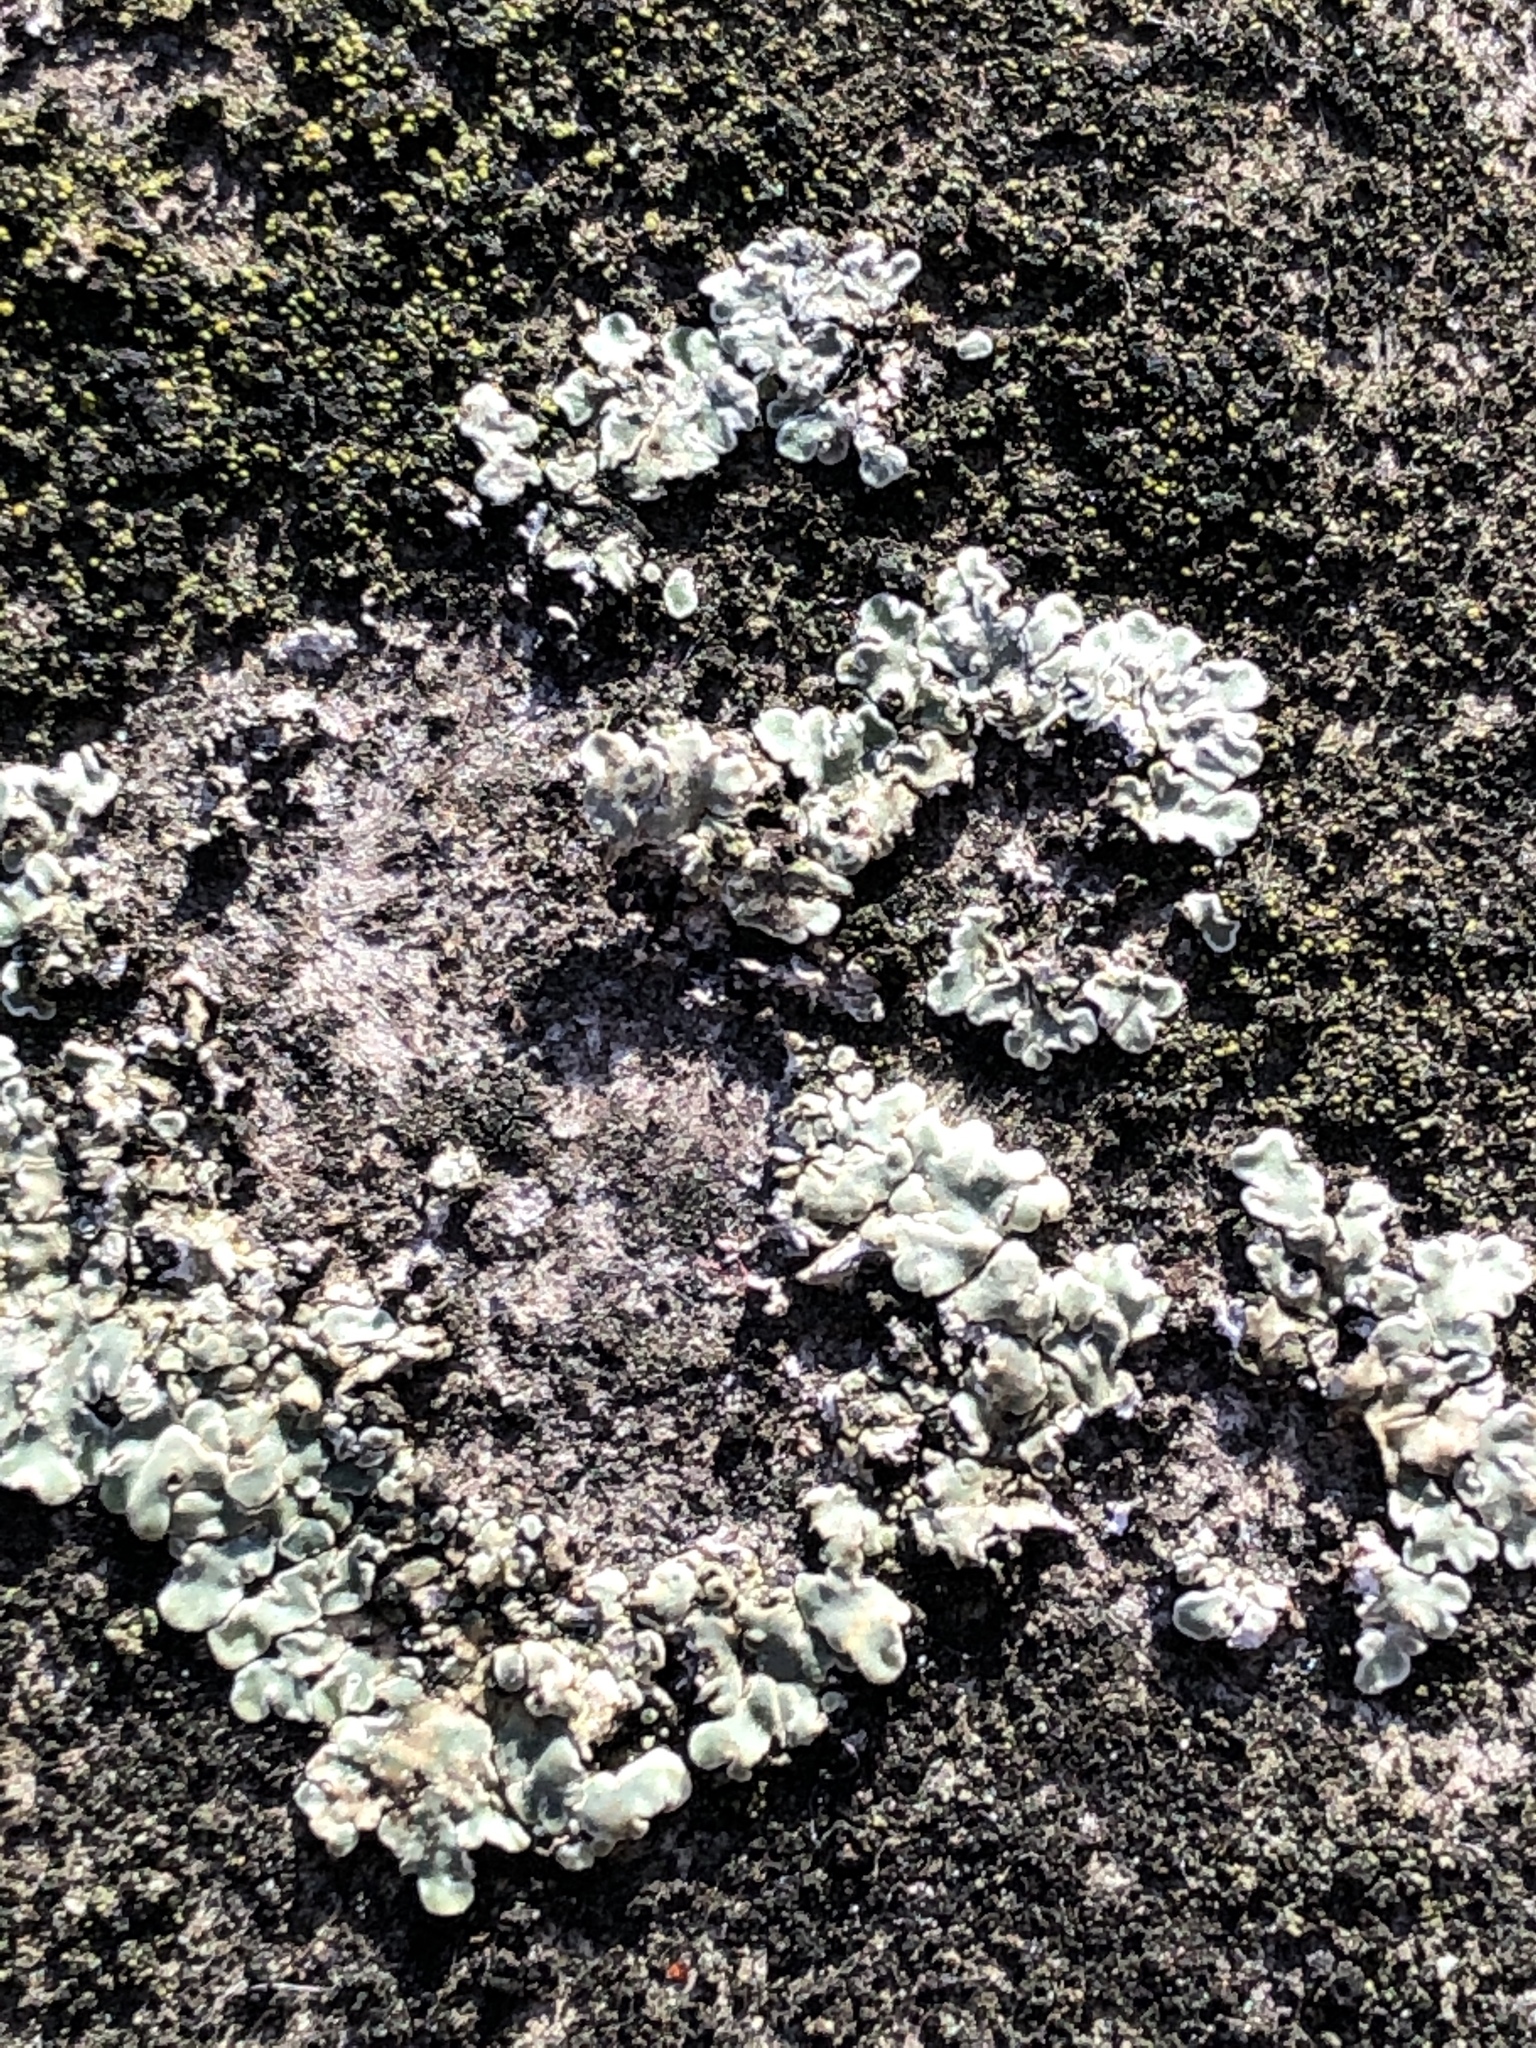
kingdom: Fungi
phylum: Ascomycota
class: Lecanoromycetes
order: Lecanorales
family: Lecanoraceae
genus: Protoparmeliopsis
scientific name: Protoparmeliopsis muralis
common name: Stonewall rim lichen
